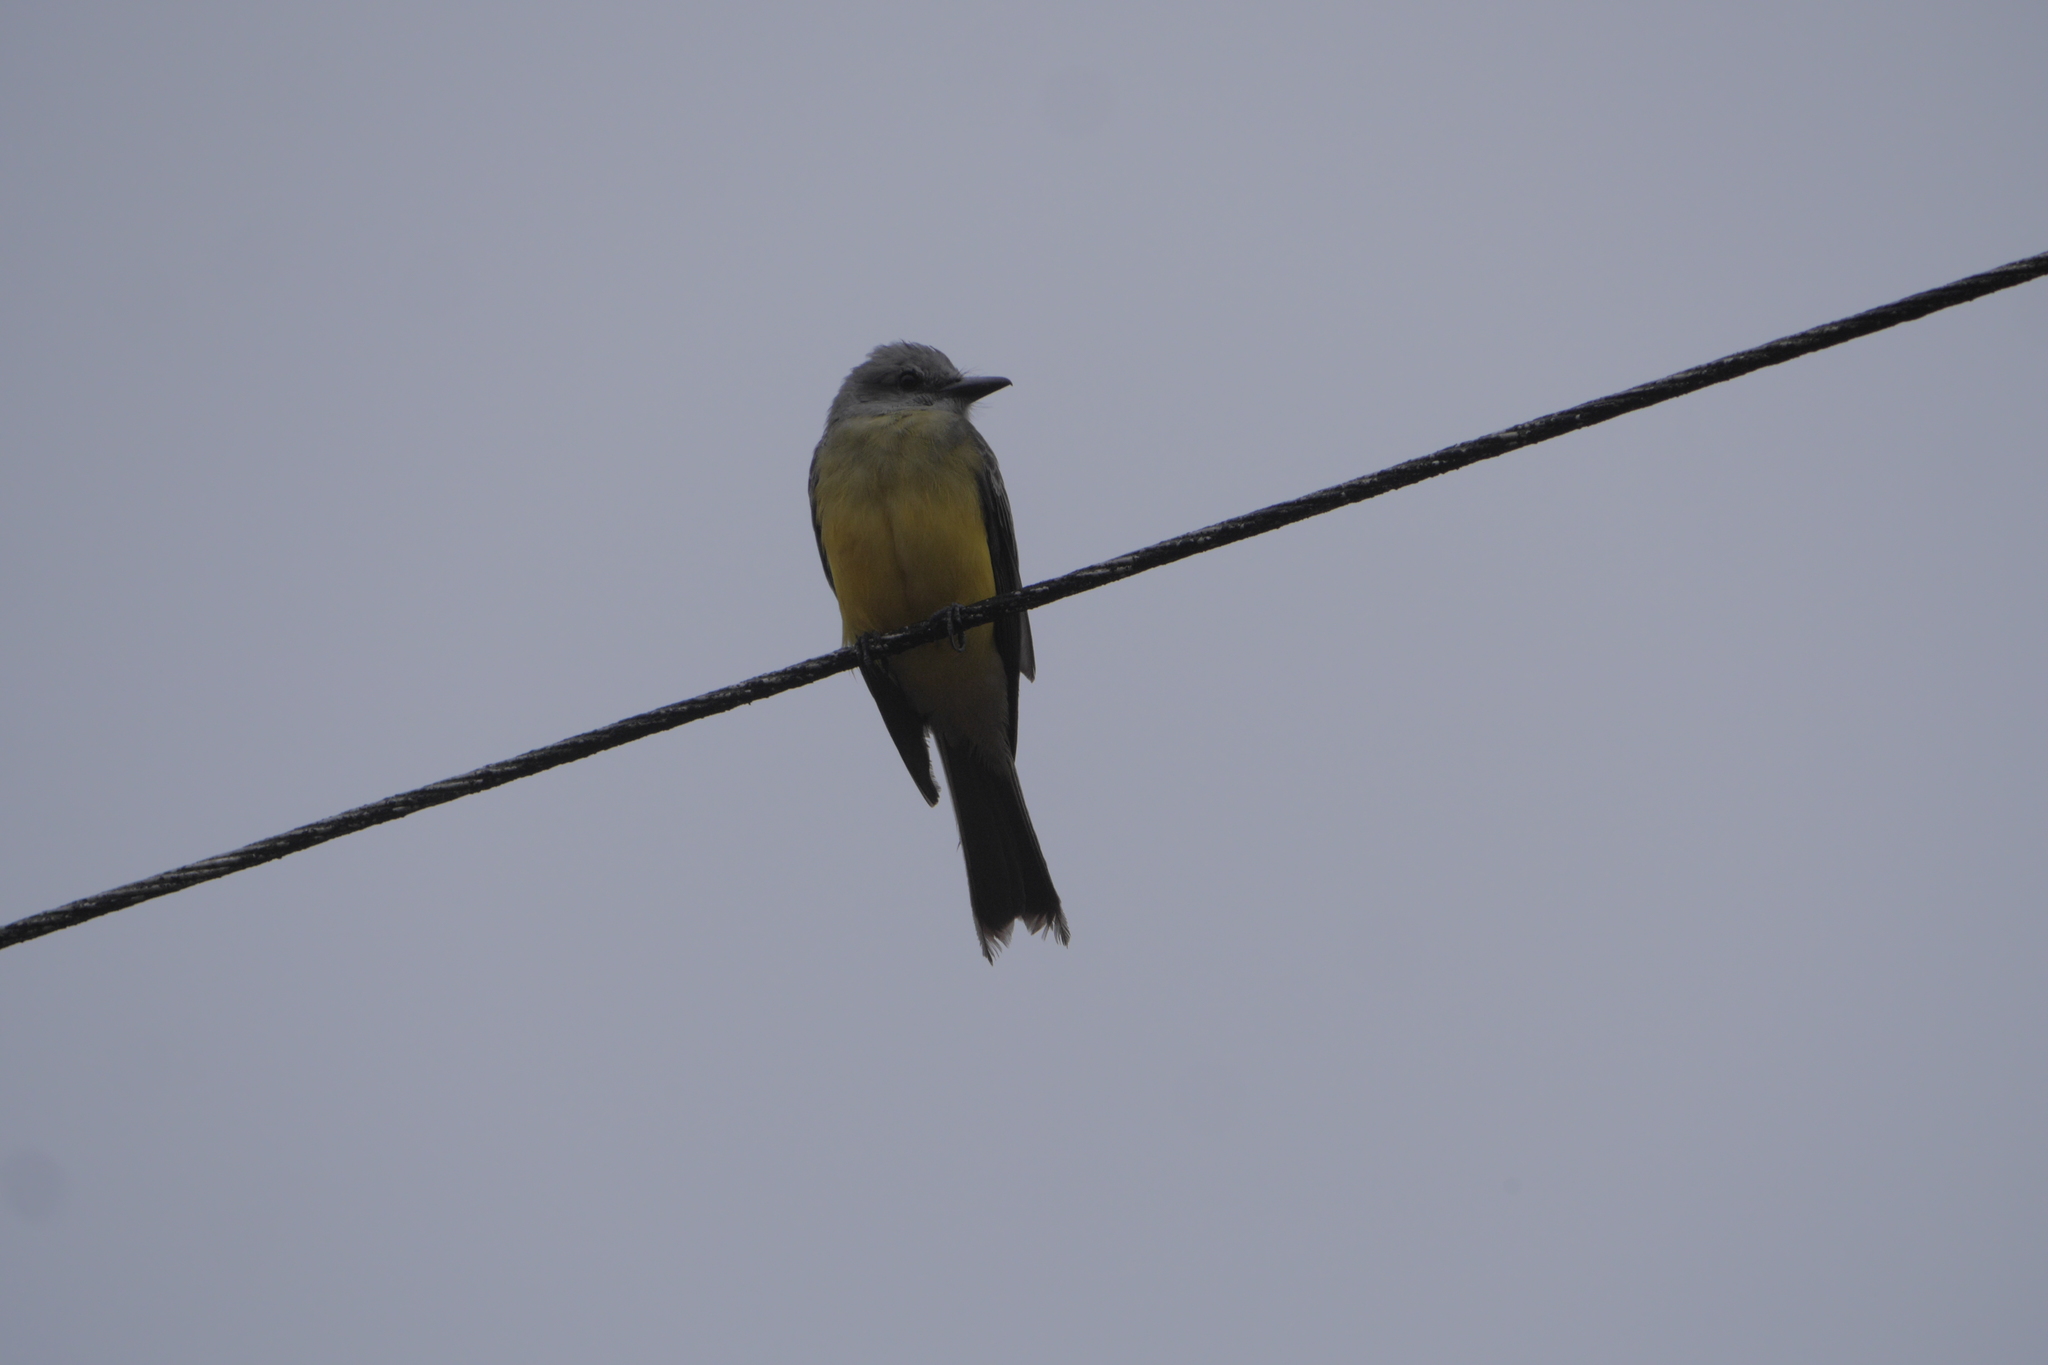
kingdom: Animalia
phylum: Chordata
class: Aves
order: Passeriformes
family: Tyrannidae
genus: Tyrannus
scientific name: Tyrannus melancholicus
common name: Tropical kingbird
